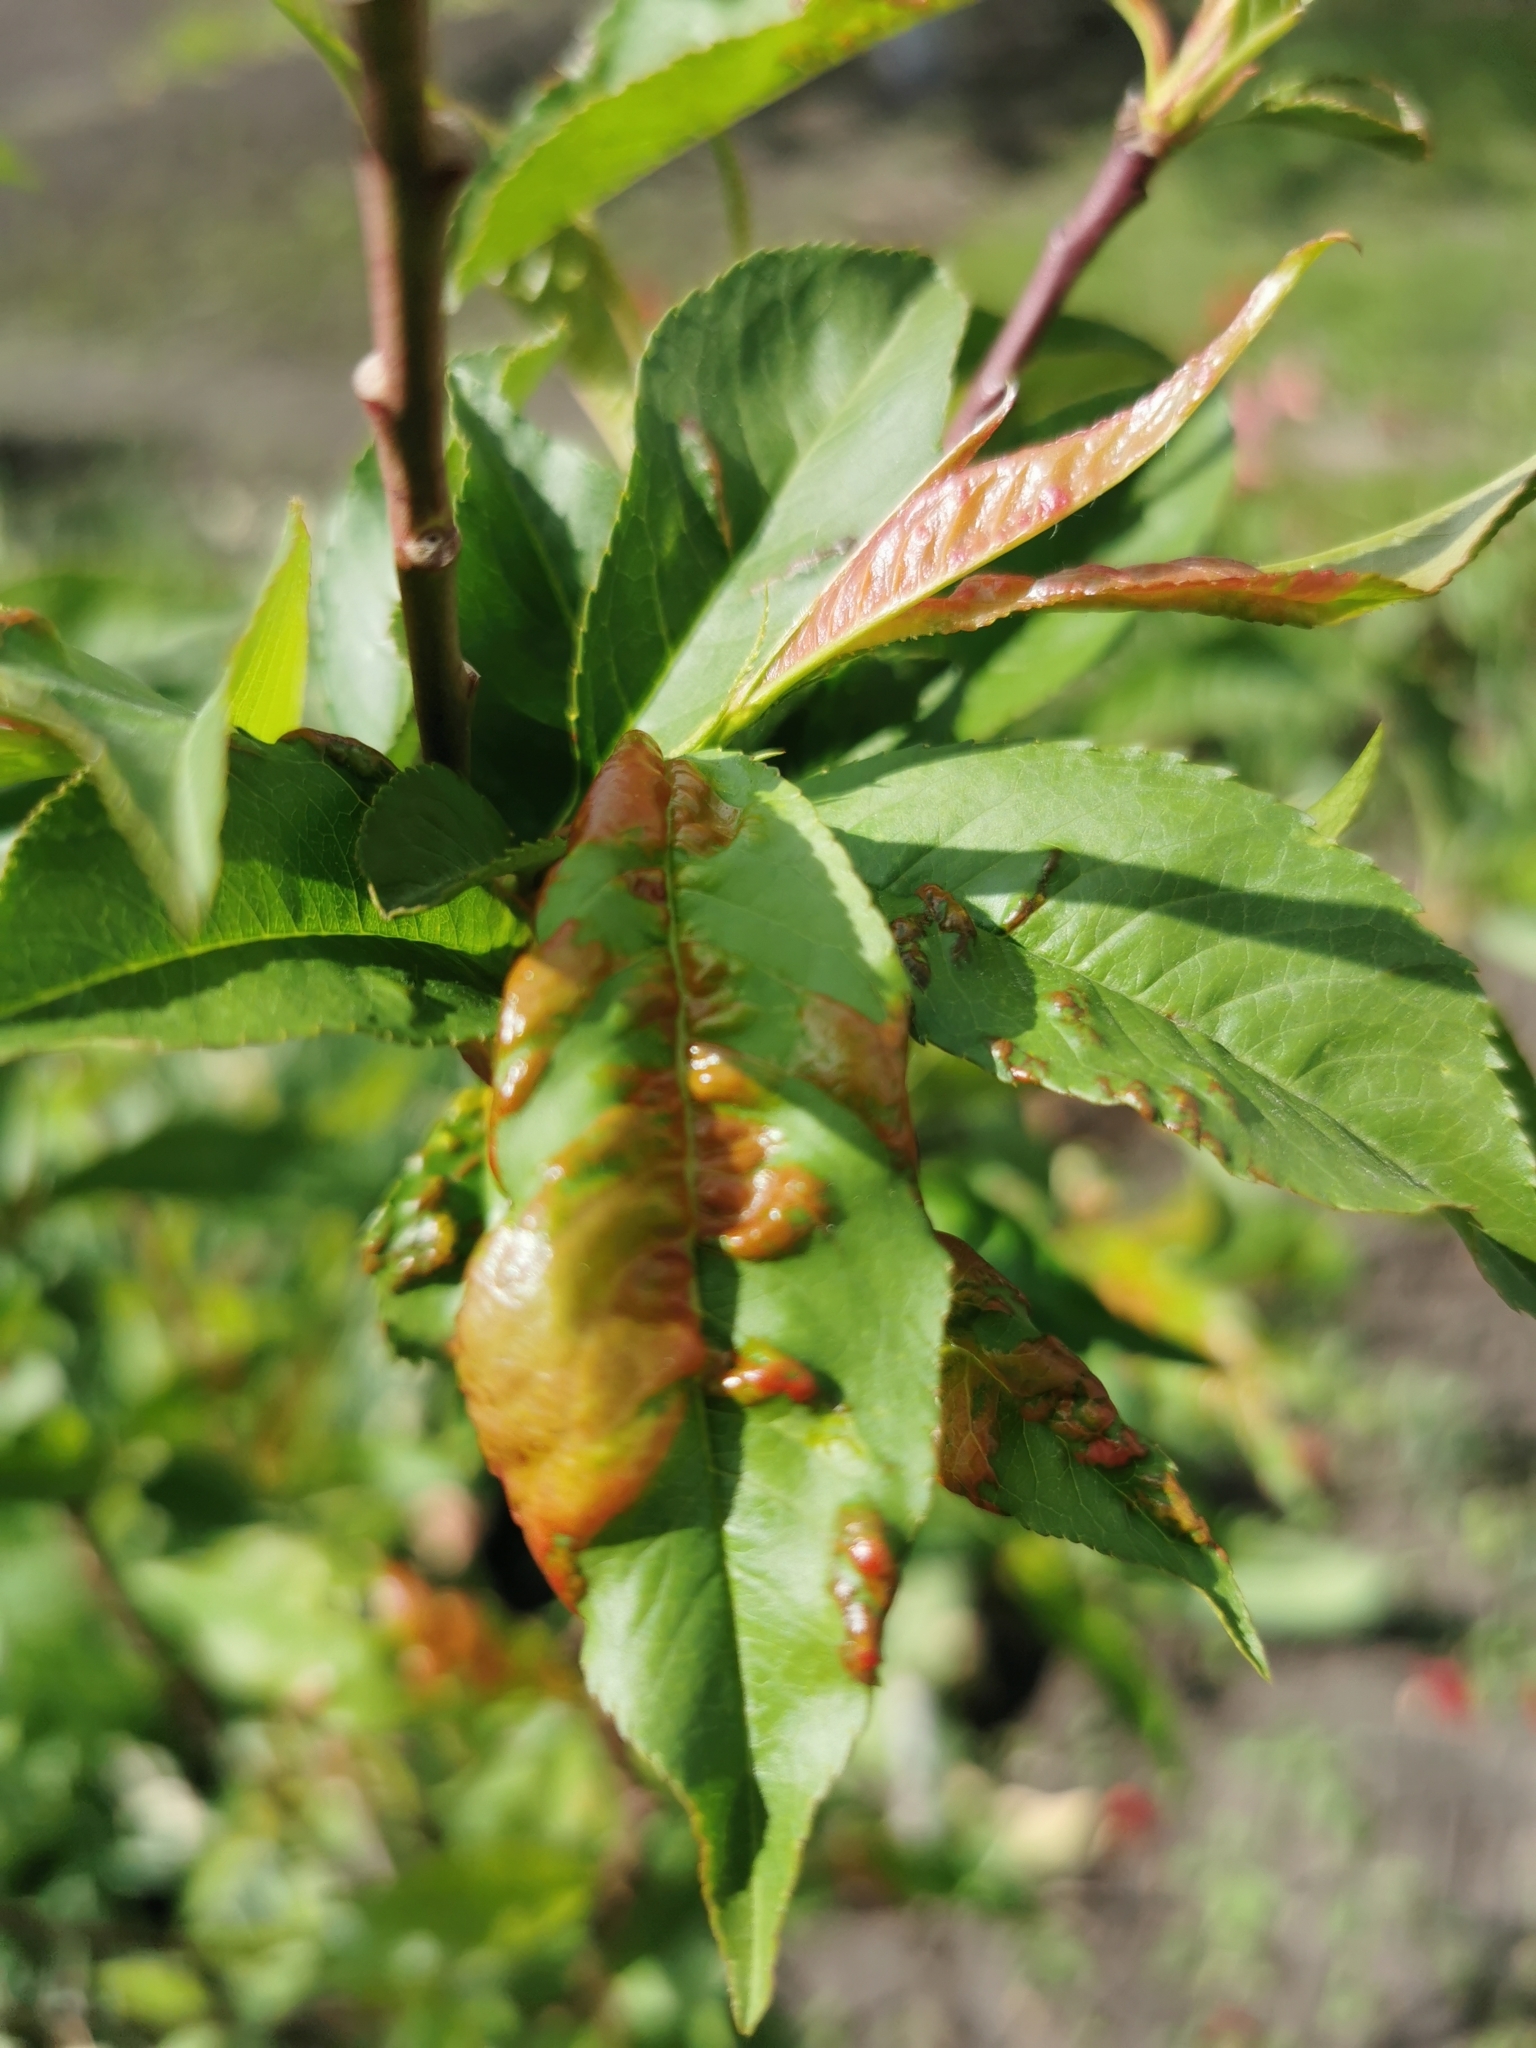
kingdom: Fungi
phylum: Ascomycota
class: Taphrinomycetes
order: Taphrinales
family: Taphrinaceae
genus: Taphrina
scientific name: Taphrina deformans
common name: Peach leaf curl
